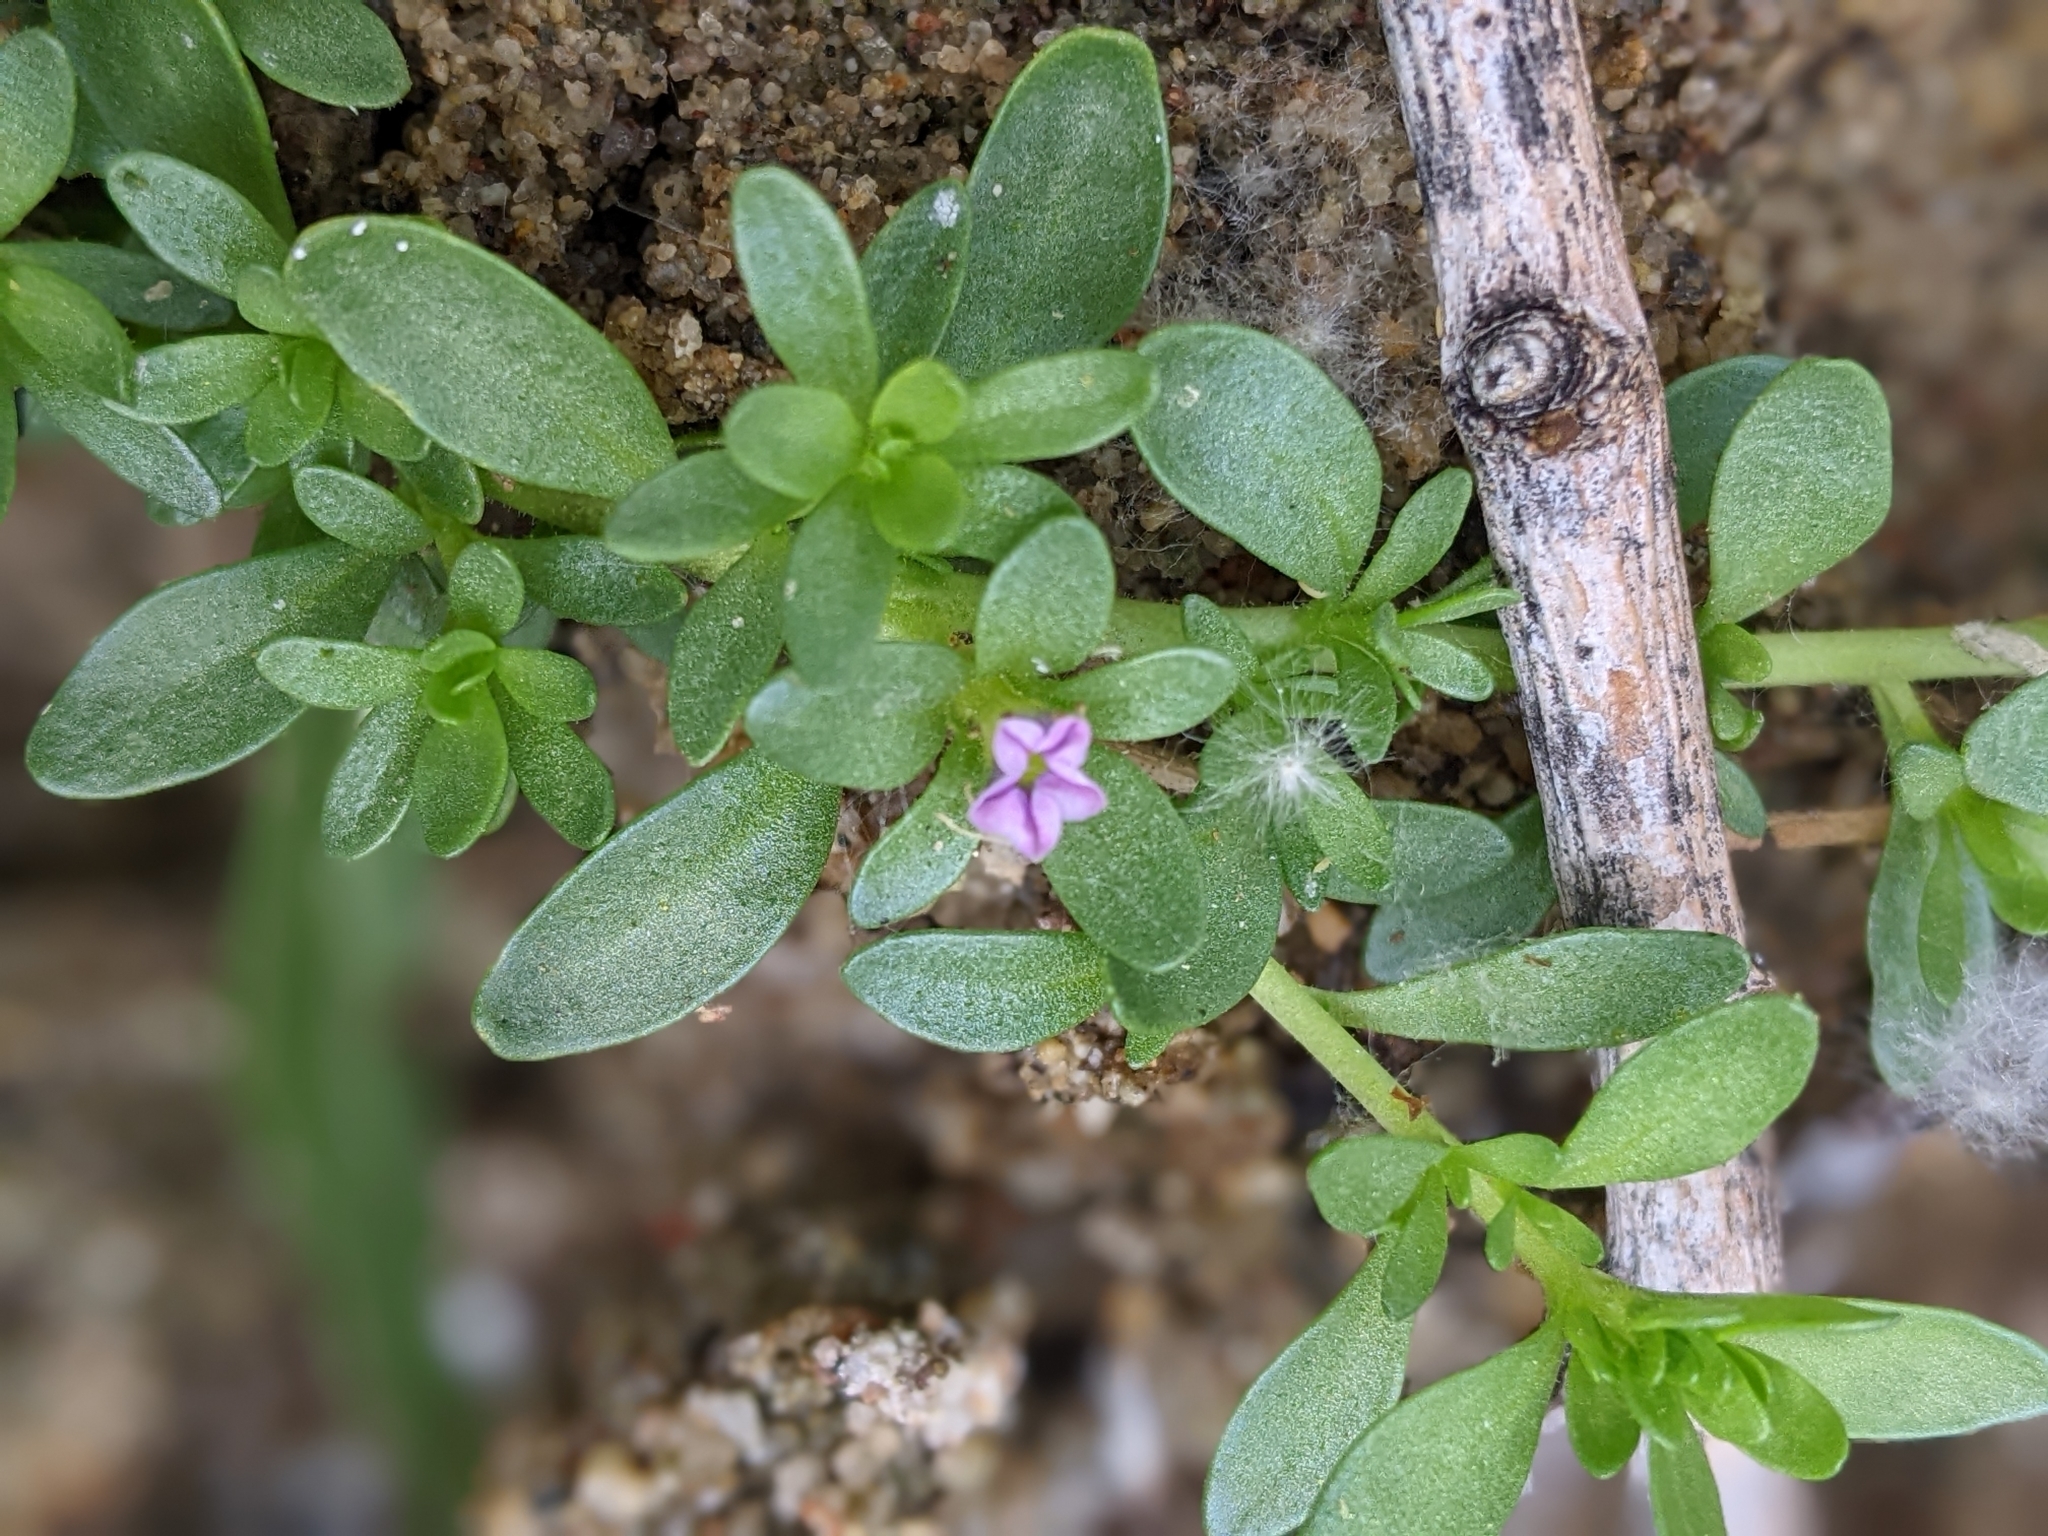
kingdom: Plantae
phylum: Tracheophyta
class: Magnoliopsida
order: Solanales
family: Solanaceae
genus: Calibrachoa
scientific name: Calibrachoa parviflora
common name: Seaside petunia
